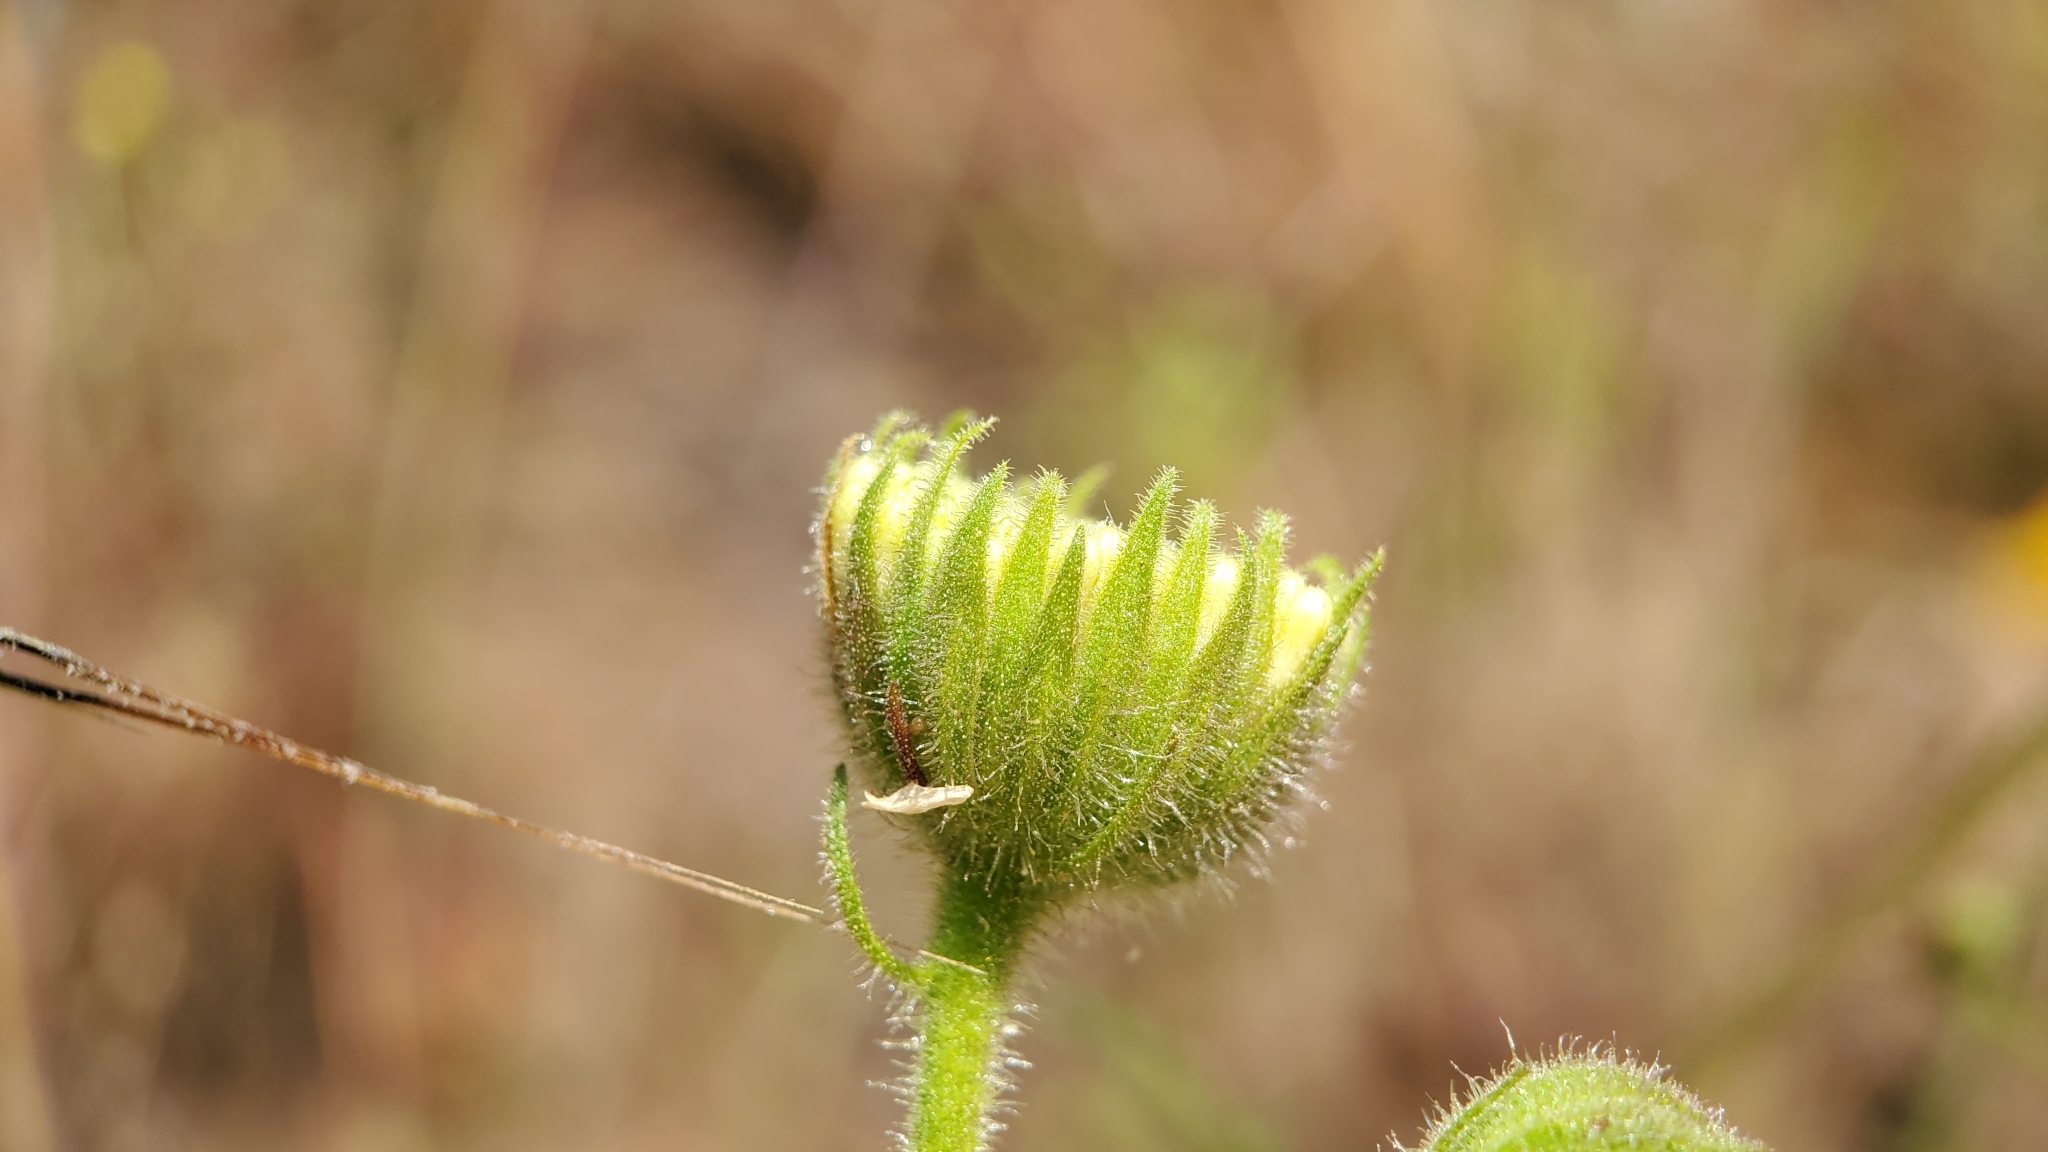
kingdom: Plantae
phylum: Tracheophyta
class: Magnoliopsida
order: Asterales
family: Asteraceae
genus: Chaenactis
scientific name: Chaenactis artemisiifolia
